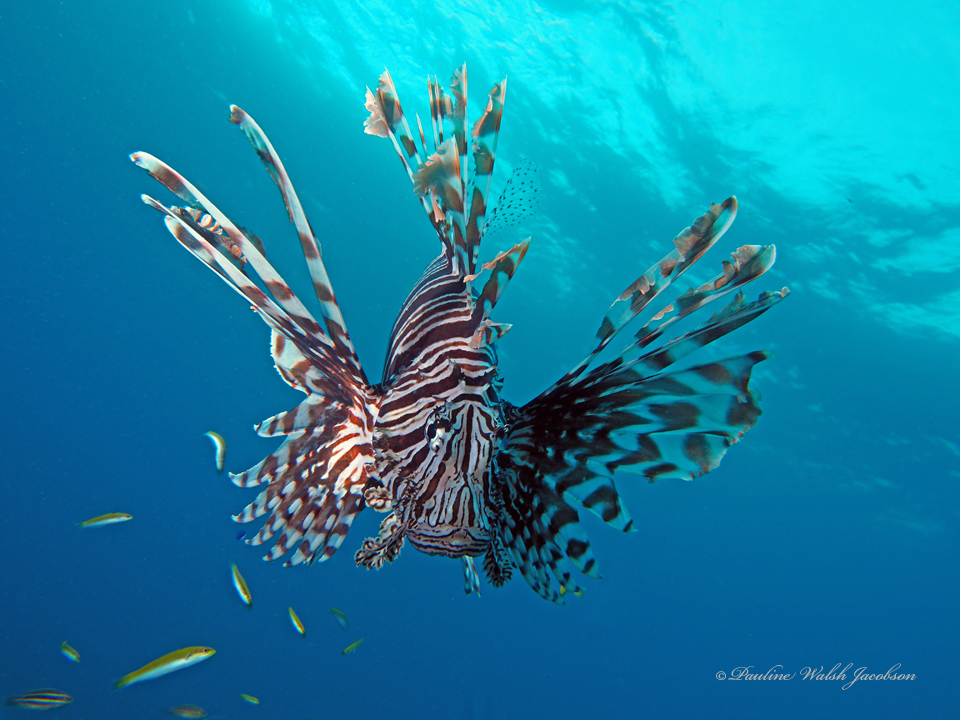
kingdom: Animalia
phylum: Chordata
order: Scorpaeniformes
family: Scorpaenidae
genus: Pterois
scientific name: Pterois volitans
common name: Lionfish
